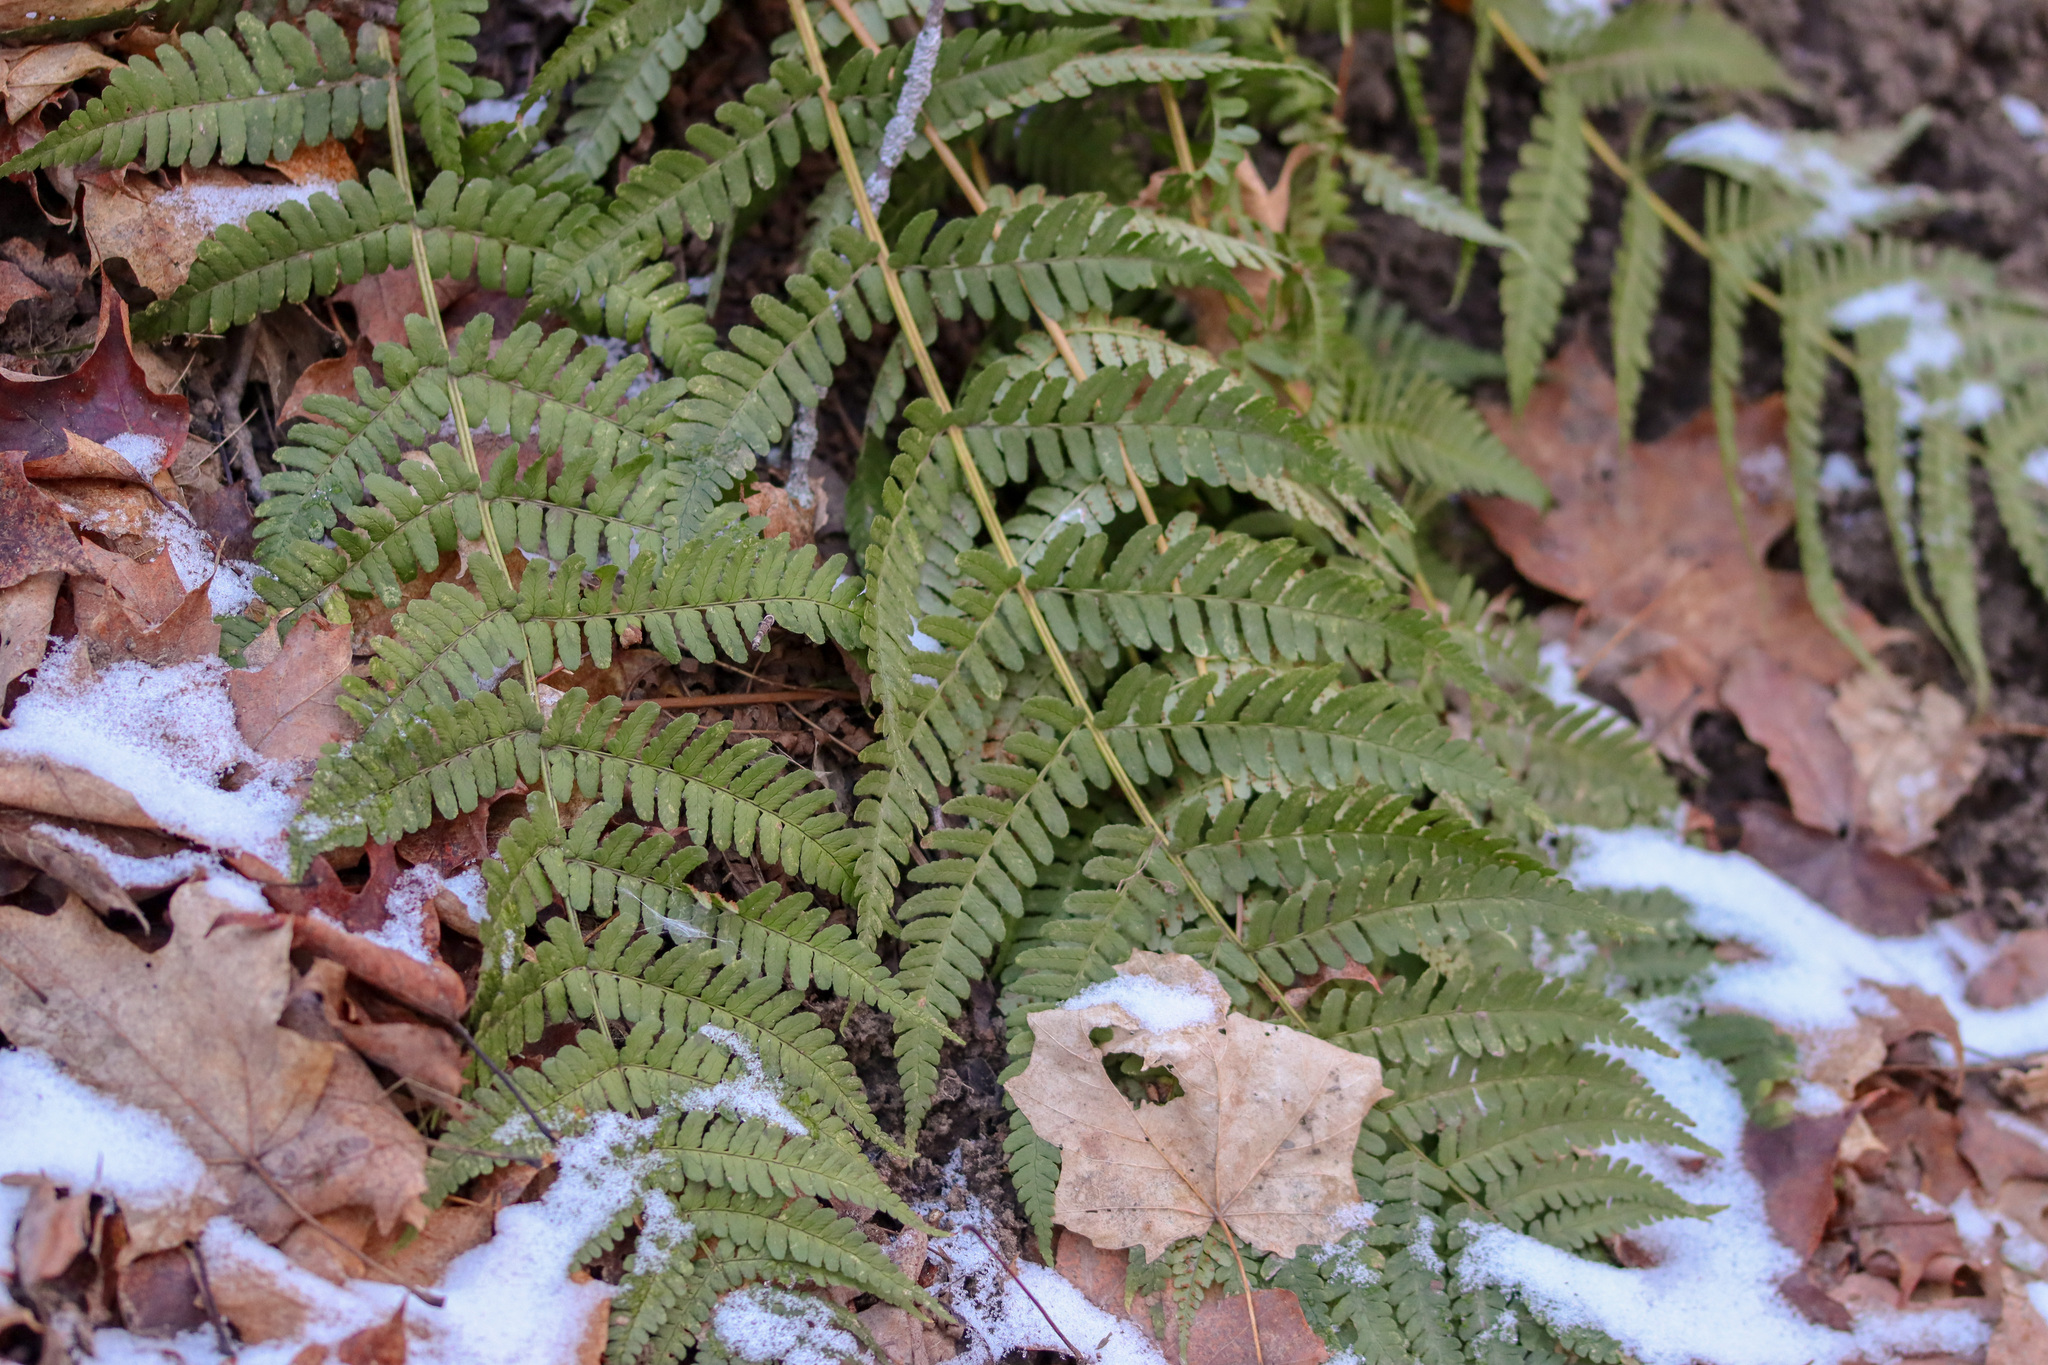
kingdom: Plantae
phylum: Tracheophyta
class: Polypodiopsida
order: Polypodiales
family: Dryopteridaceae
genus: Dryopteris
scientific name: Dryopteris marginalis
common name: Marginal wood fern
